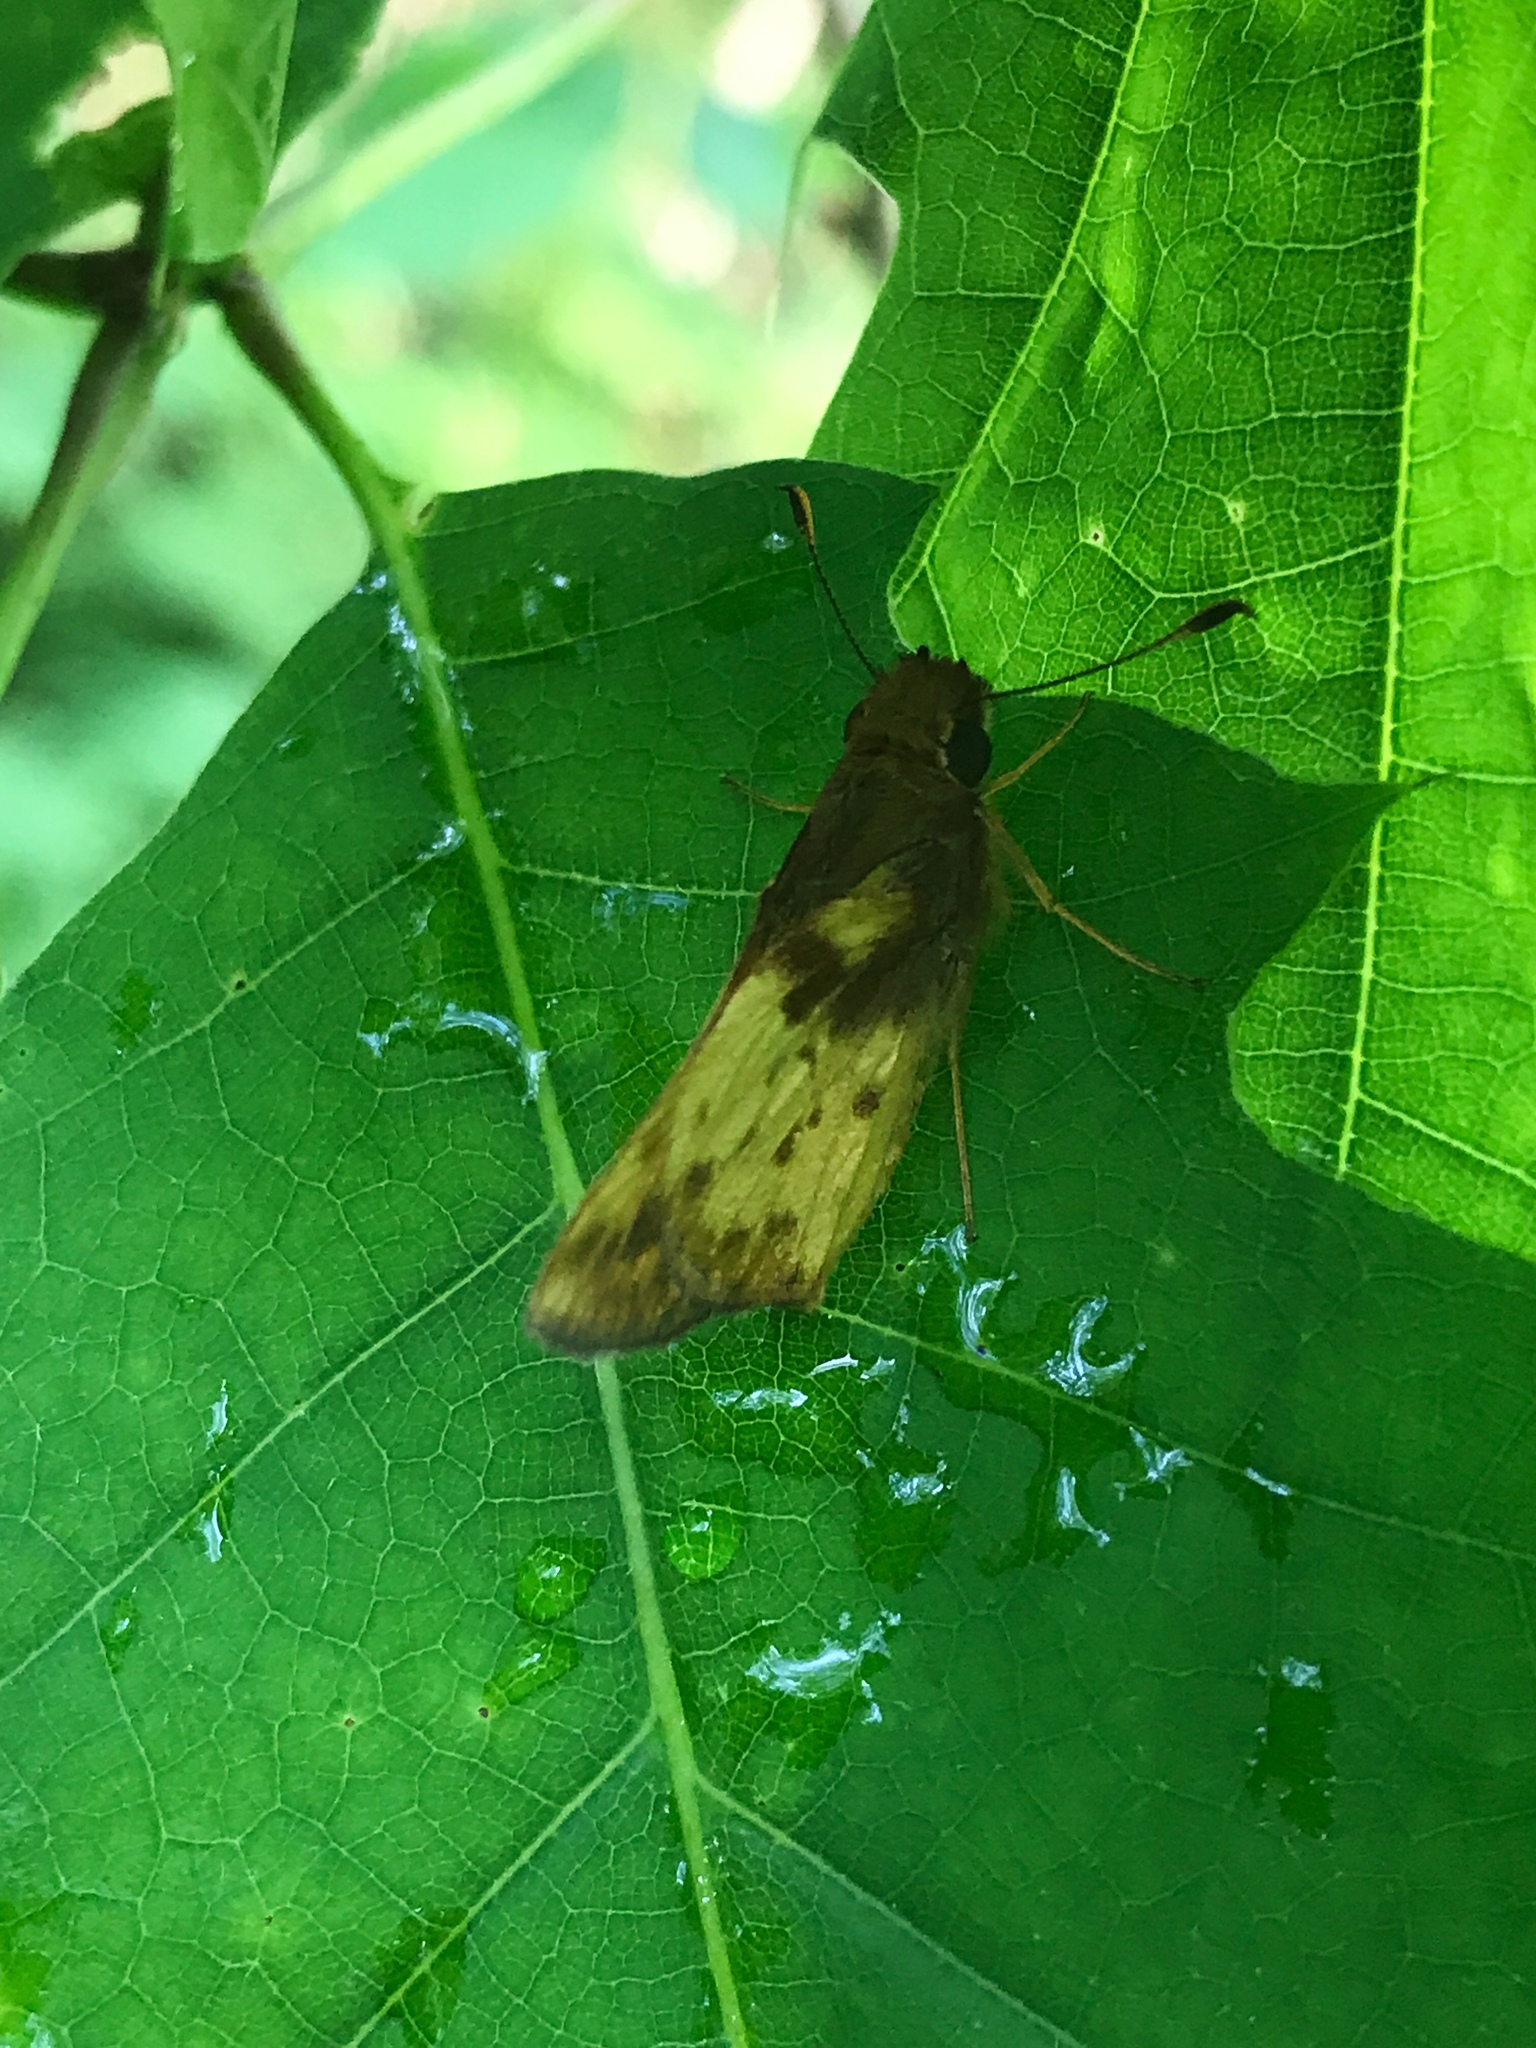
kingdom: Animalia
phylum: Arthropoda
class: Insecta
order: Lepidoptera
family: Hesperiidae
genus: Lon
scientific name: Lon zabulon
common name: Zabulon skipper
